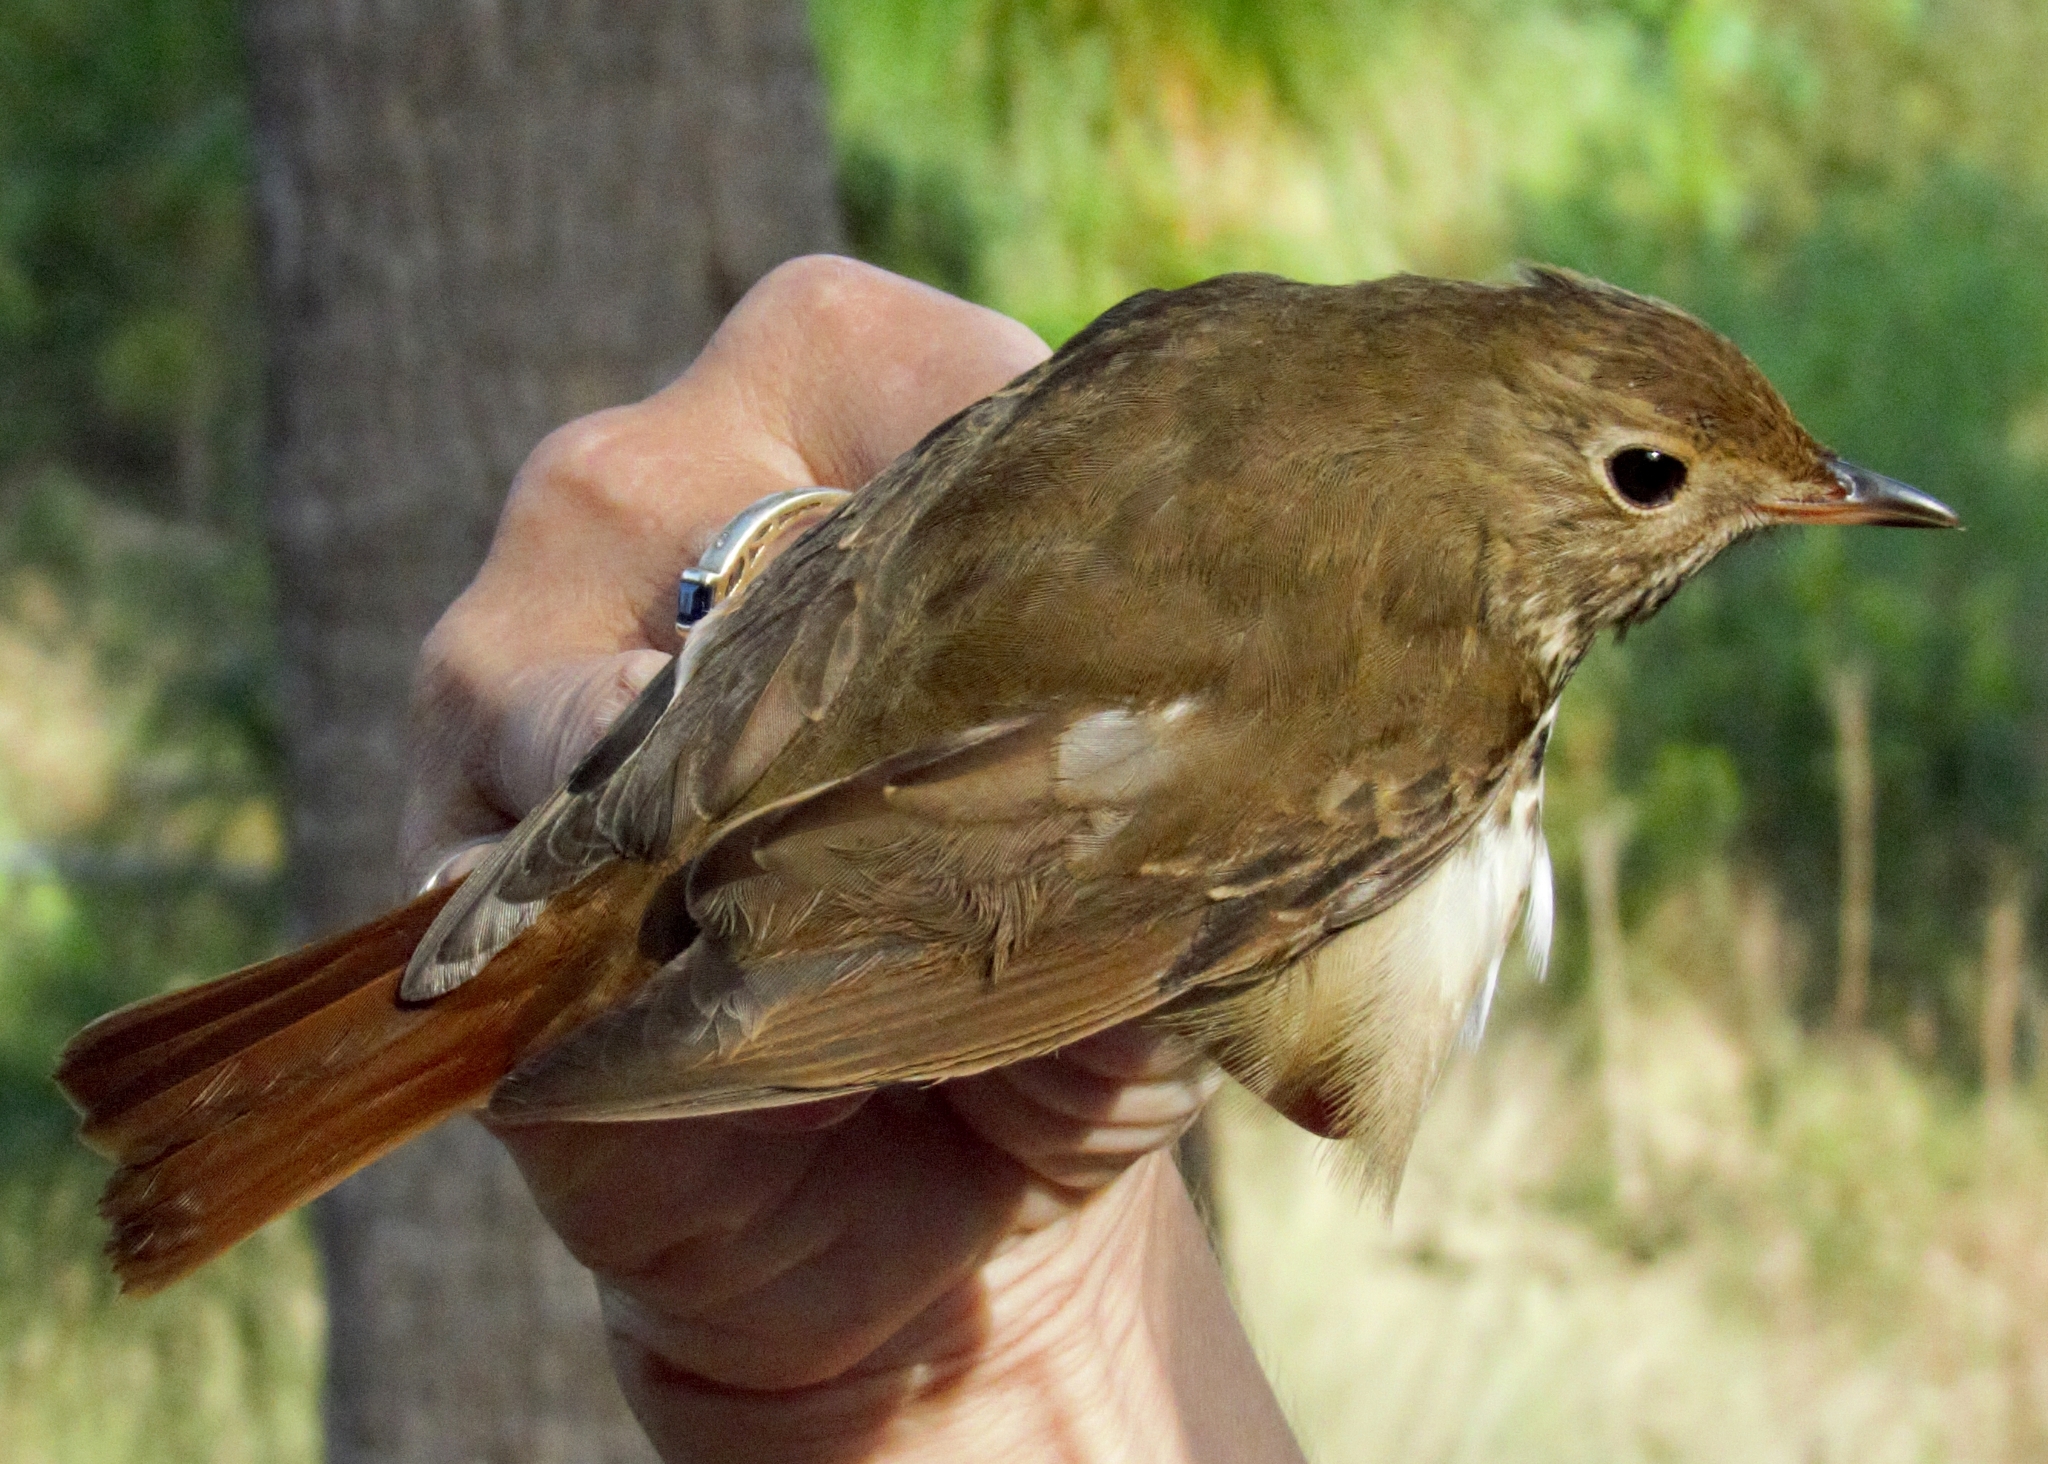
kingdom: Animalia
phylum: Chordata
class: Aves
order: Passeriformes
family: Turdidae
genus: Catharus
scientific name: Catharus guttatus
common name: Hermit thrush
